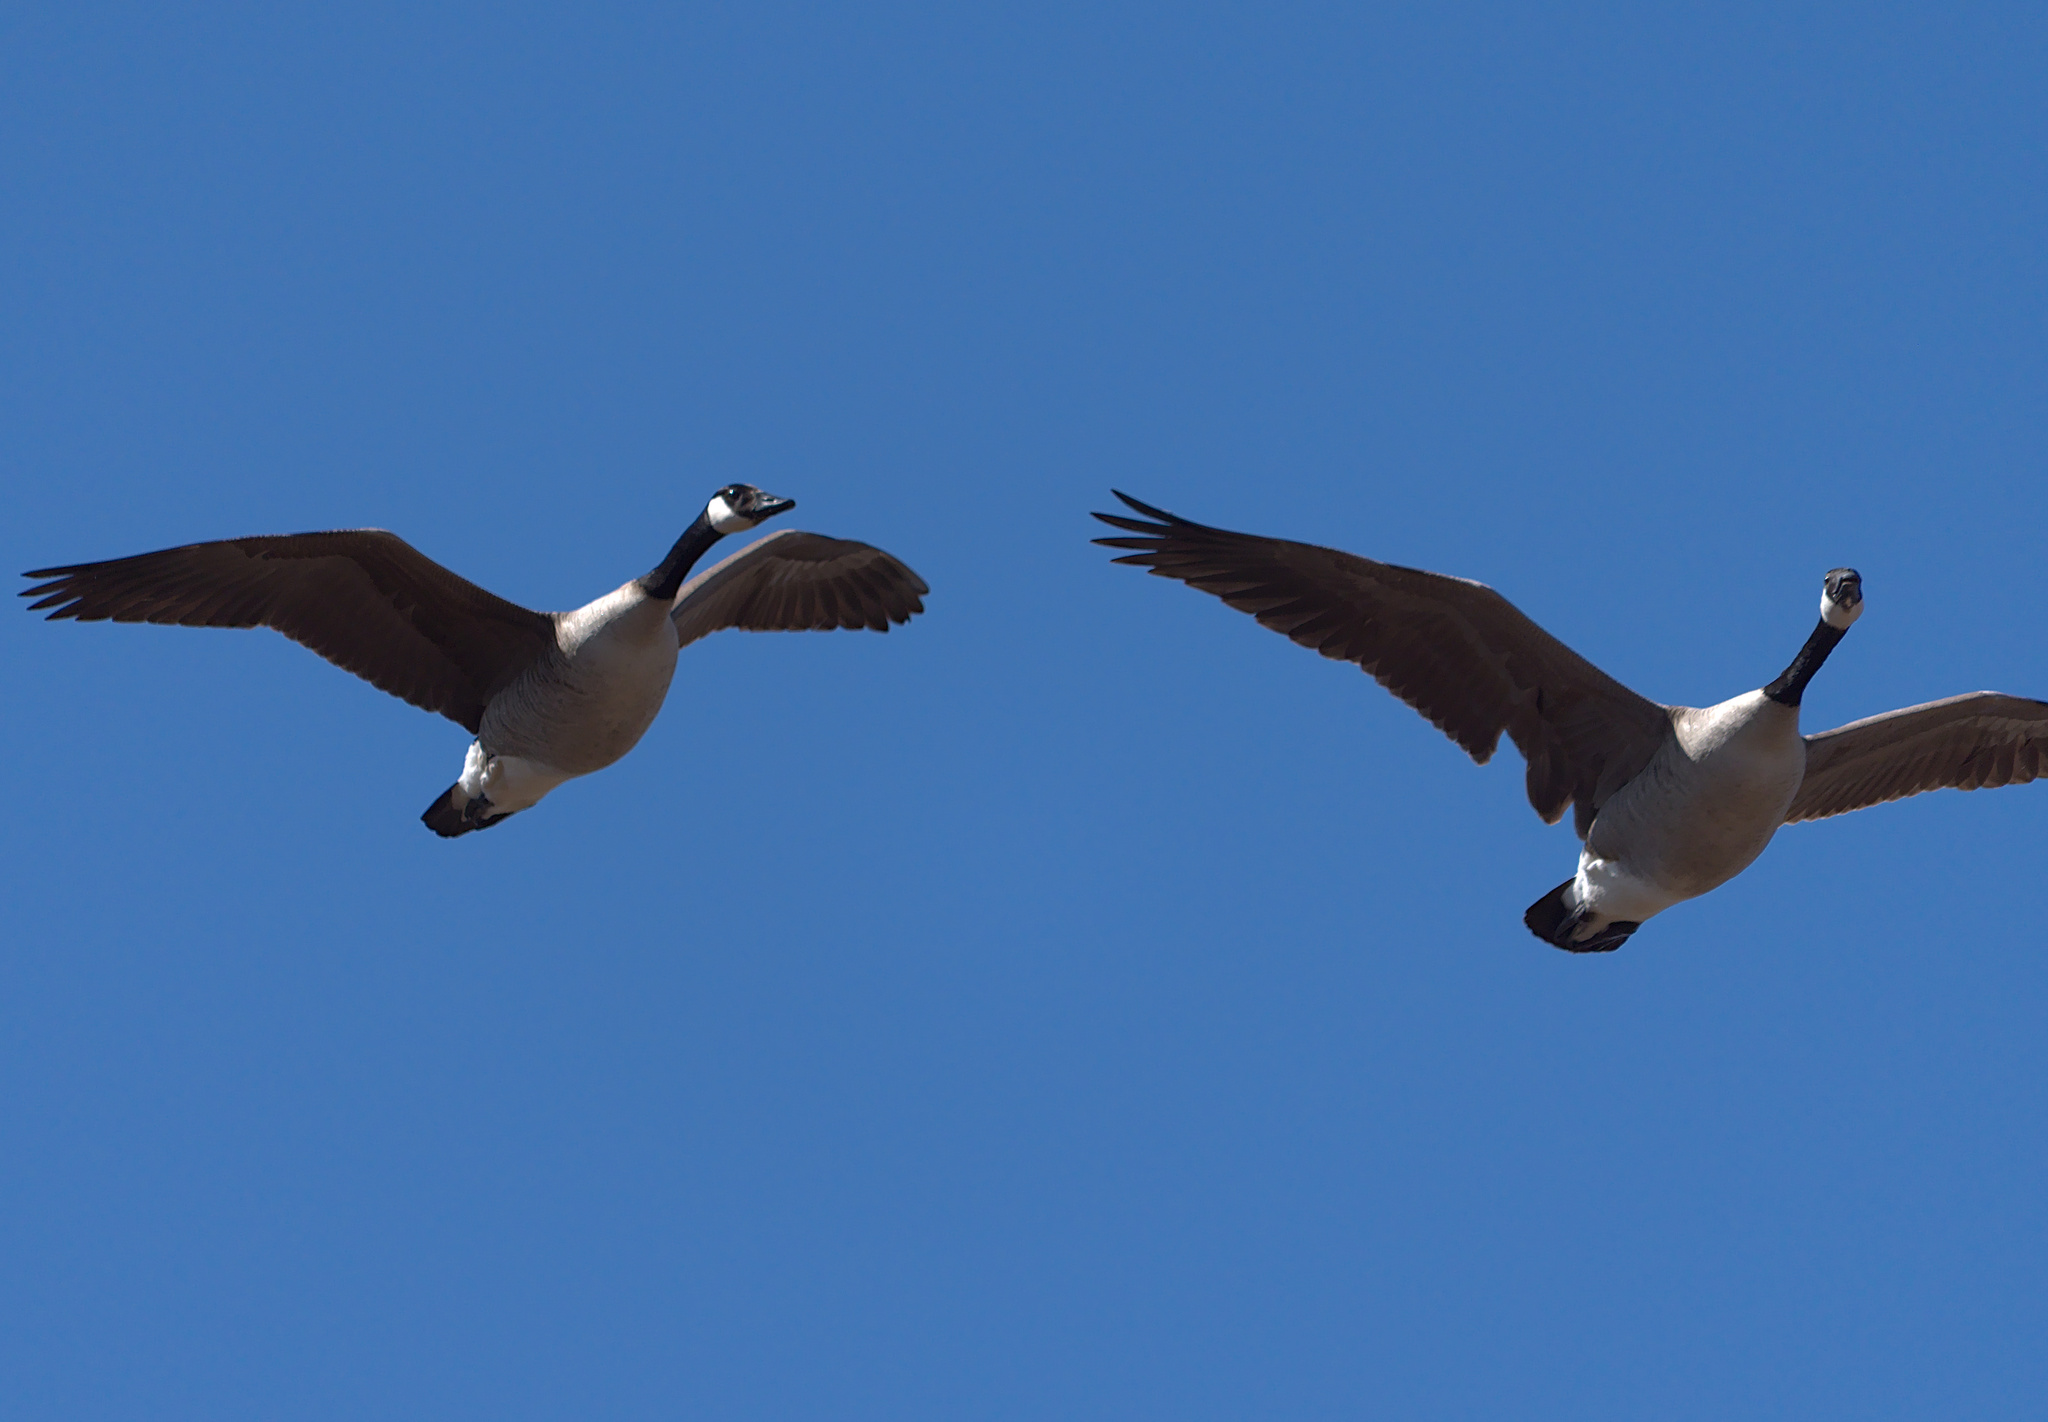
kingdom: Animalia
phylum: Chordata
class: Aves
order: Anseriformes
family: Anatidae
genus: Branta
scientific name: Branta canadensis
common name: Canada goose
